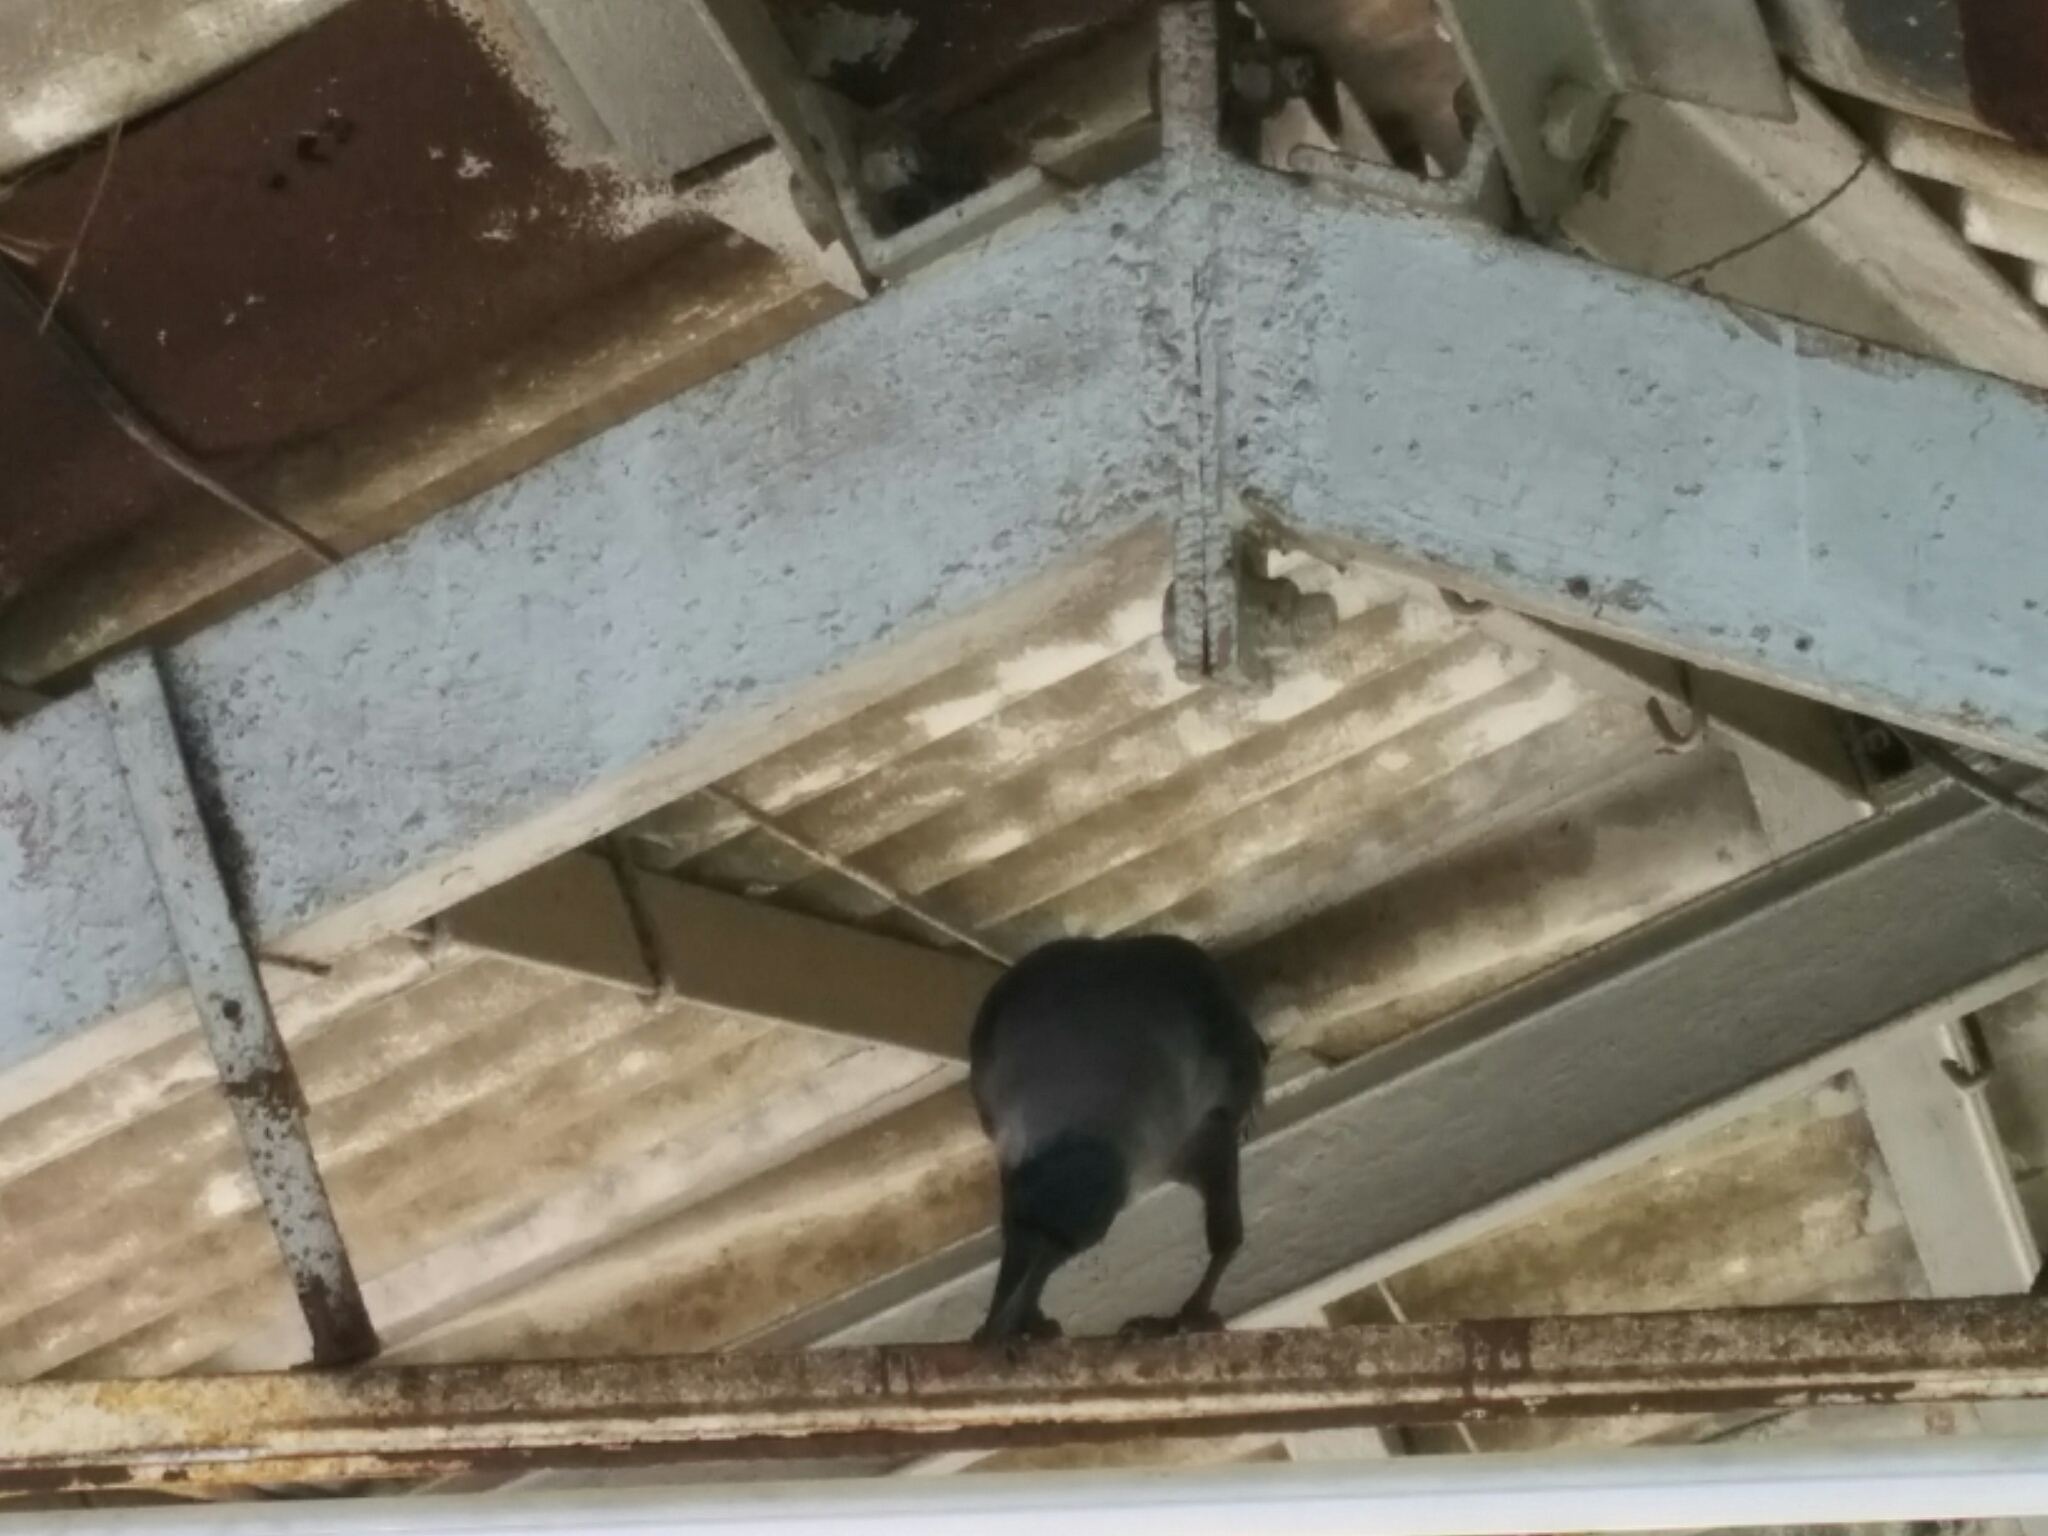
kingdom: Animalia
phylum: Chordata
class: Aves
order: Passeriformes
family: Corvidae
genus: Corvus
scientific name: Corvus splendens
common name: House crow
